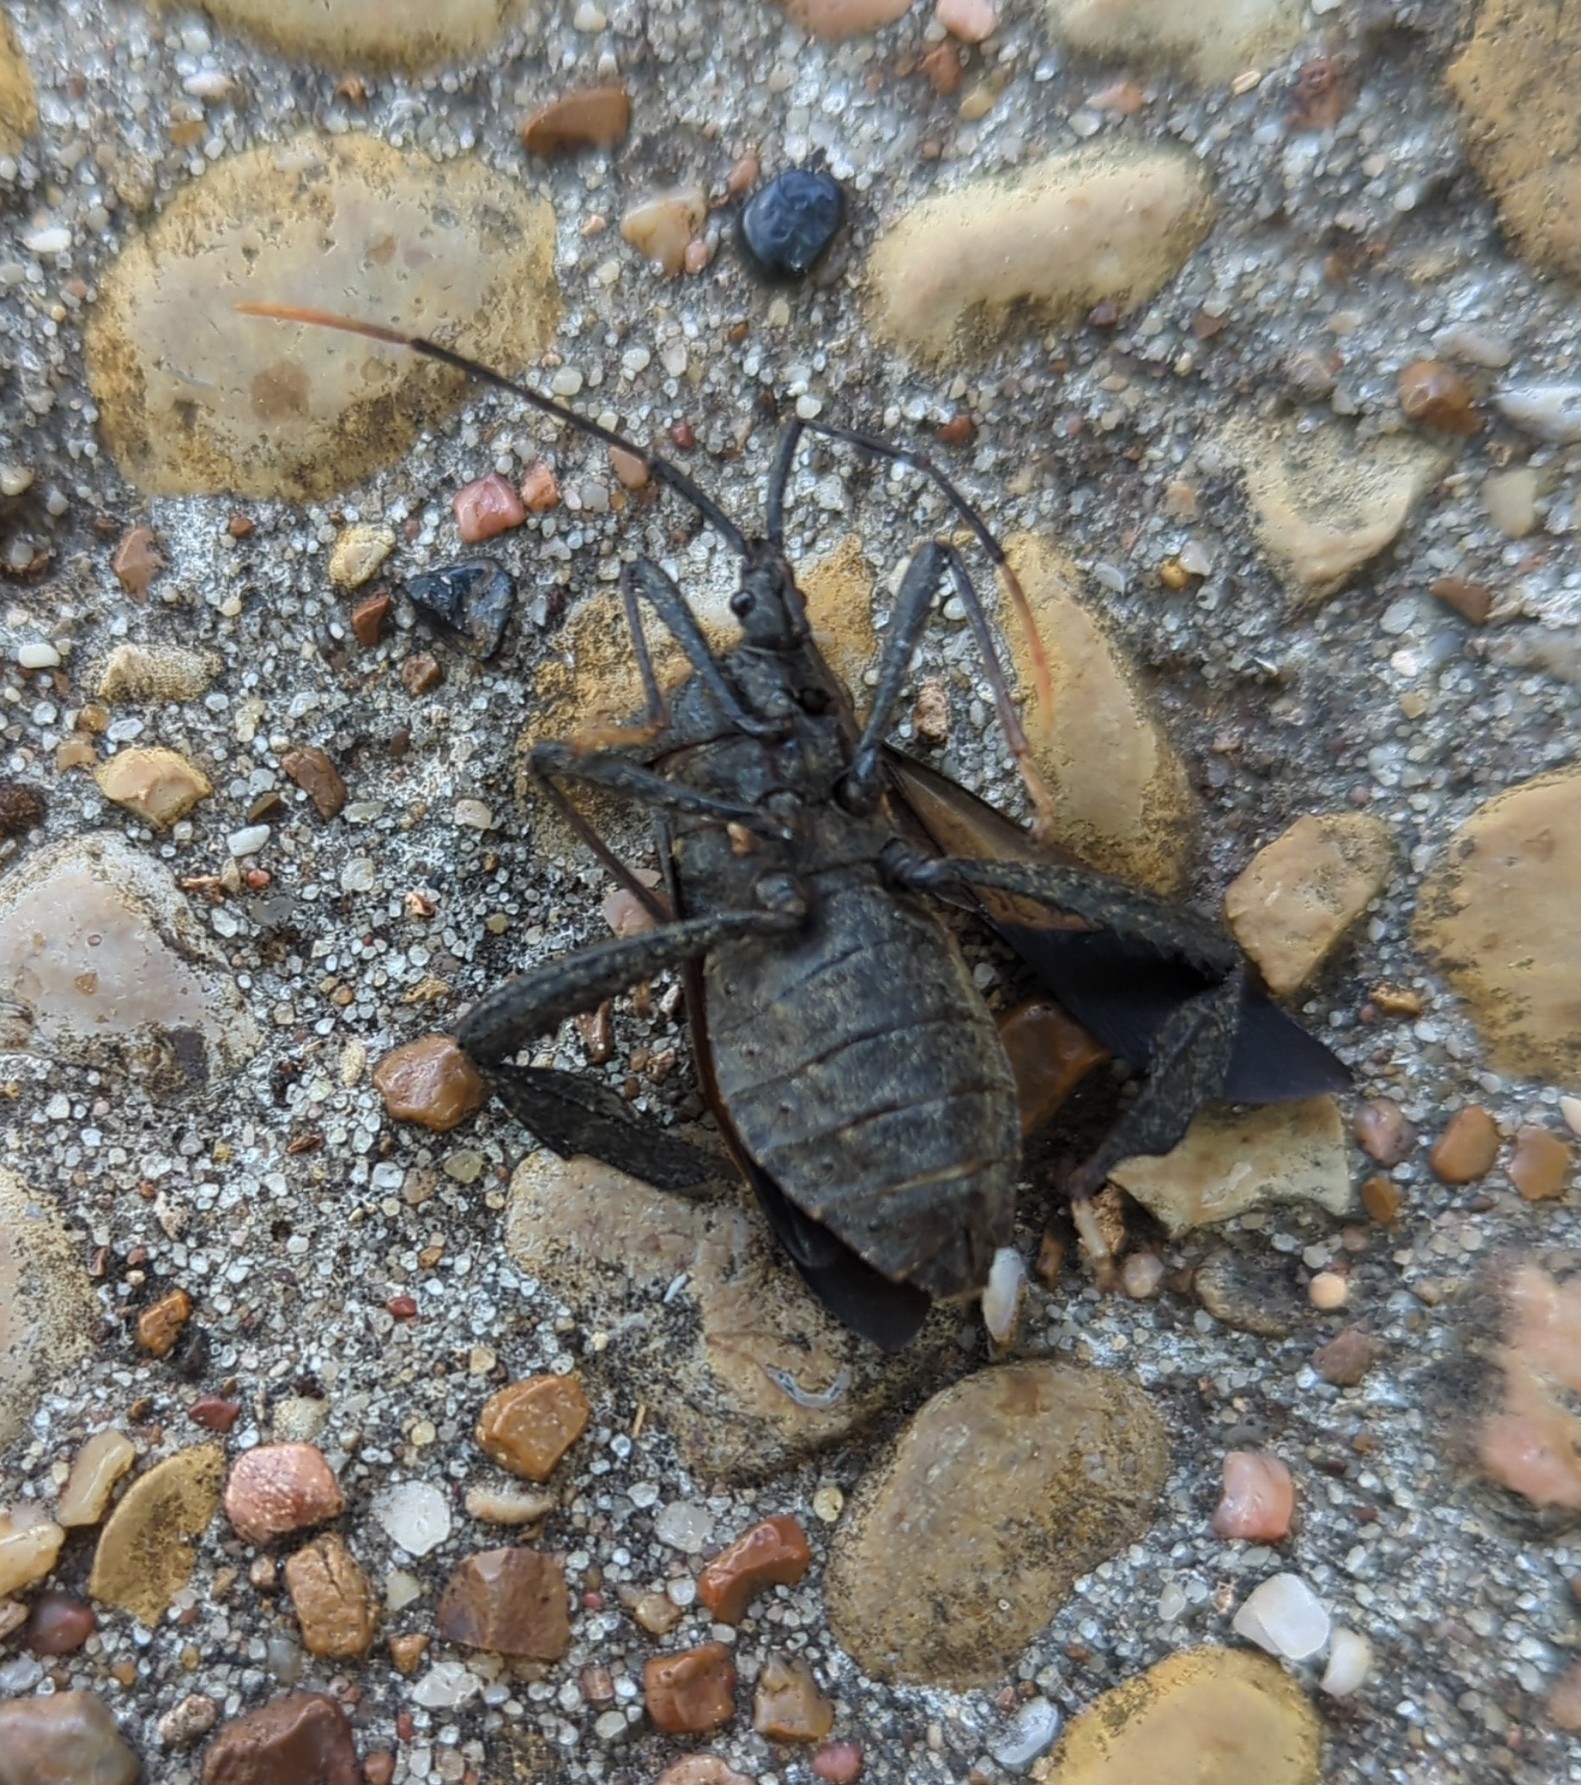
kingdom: Animalia
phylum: Arthropoda
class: Insecta
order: Hemiptera
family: Coreidae
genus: Acanthocephala
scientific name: Acanthocephala terminalis
